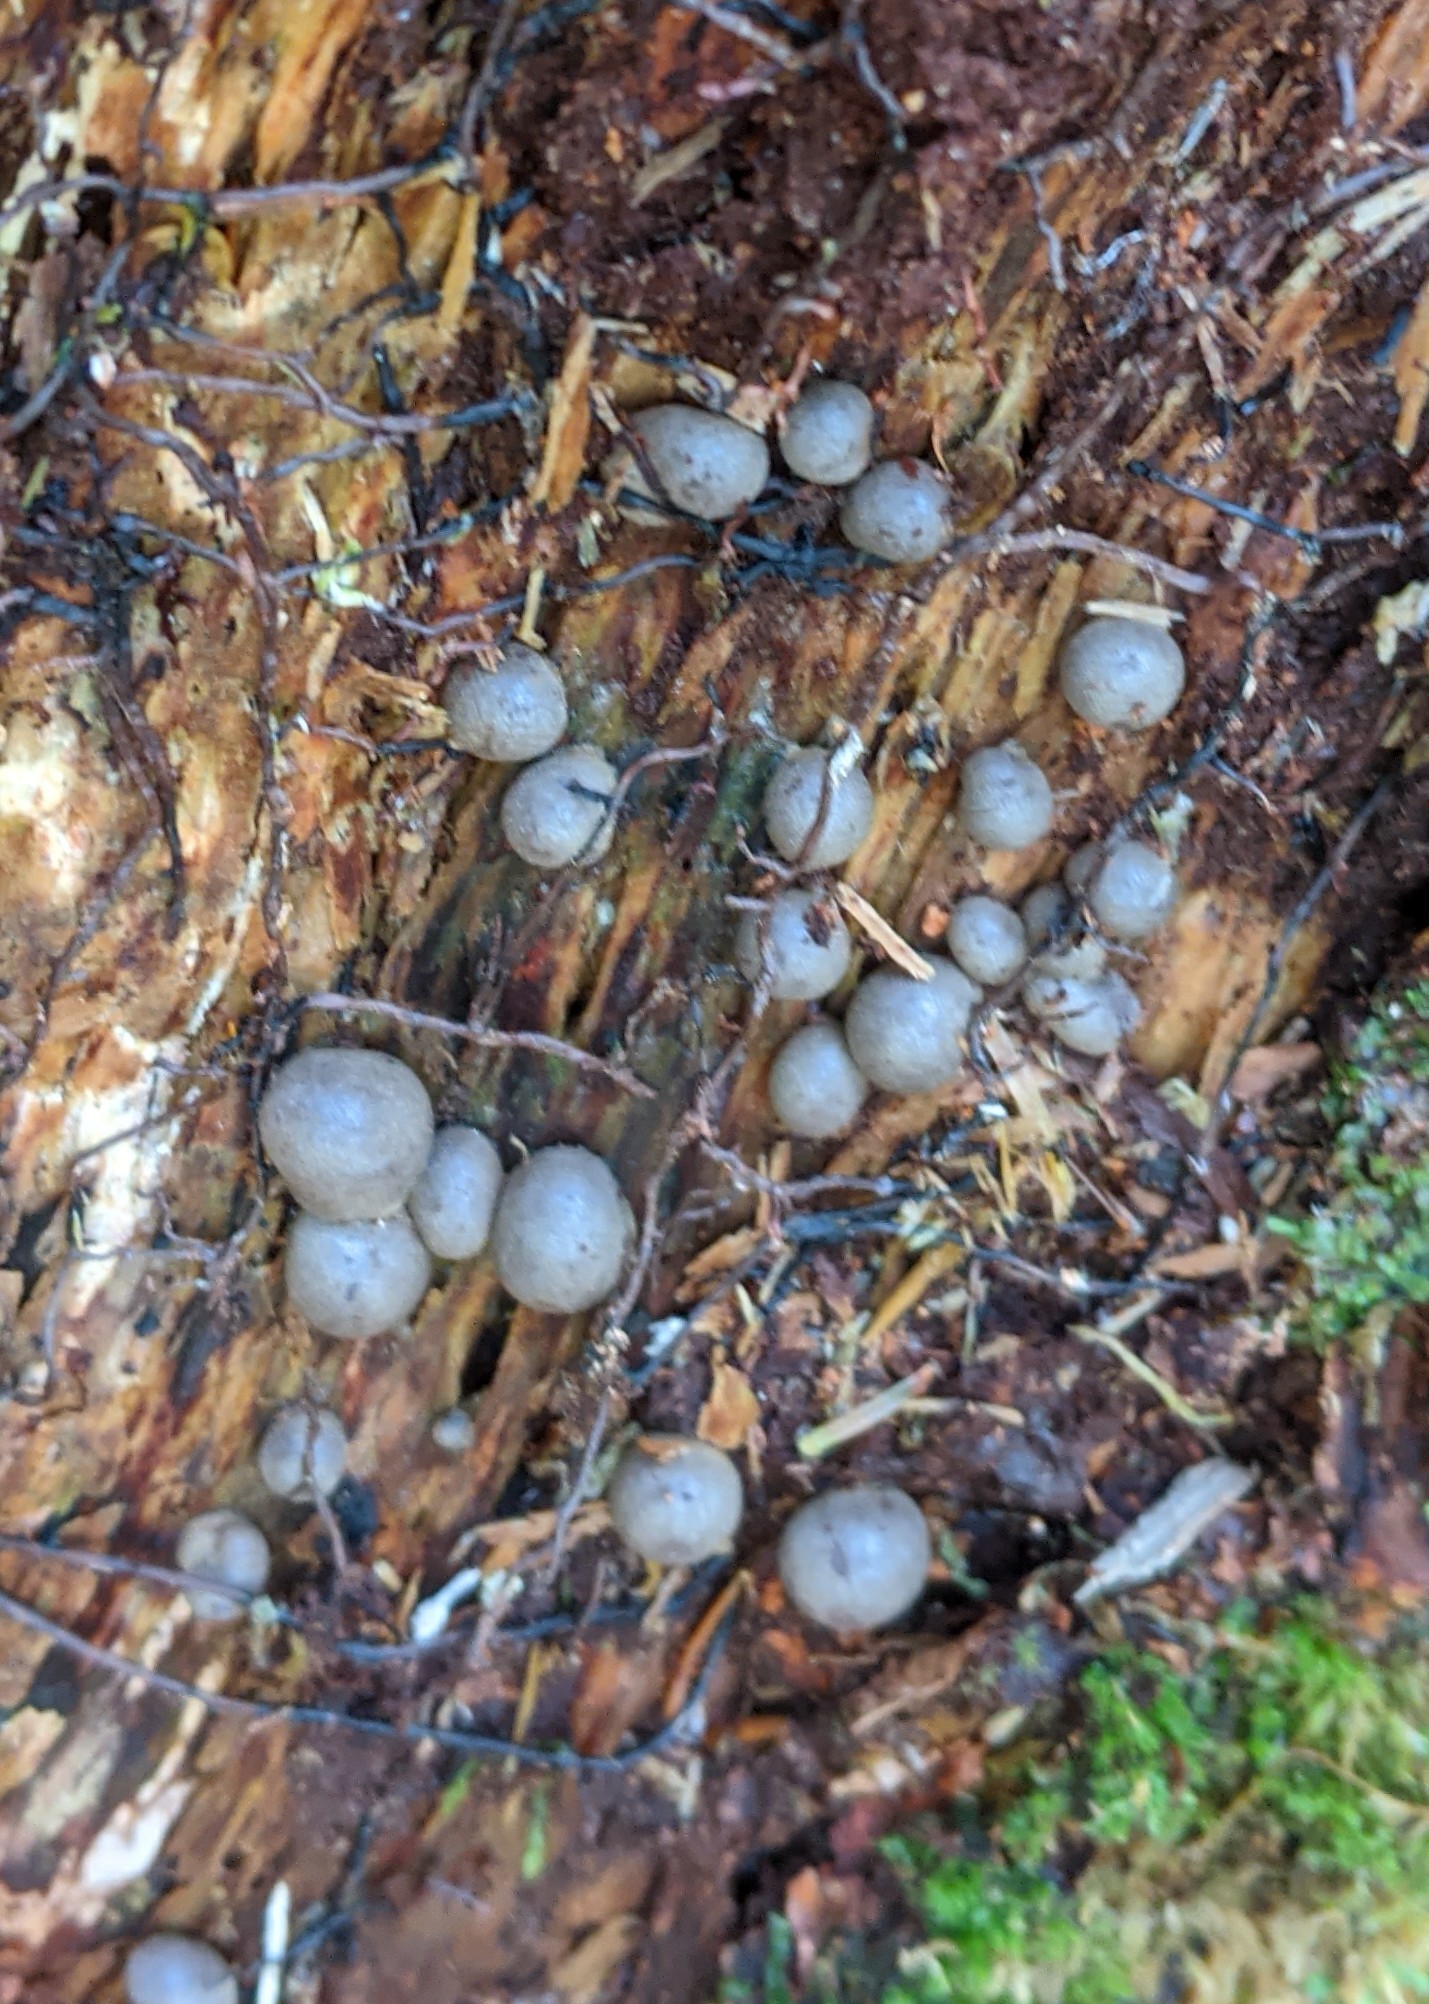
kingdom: Protozoa
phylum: Mycetozoa
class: Myxomycetes
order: Cribrariales
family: Tubiferaceae
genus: Lycogala
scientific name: Lycogala epidendrum
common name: Wolf's milk
